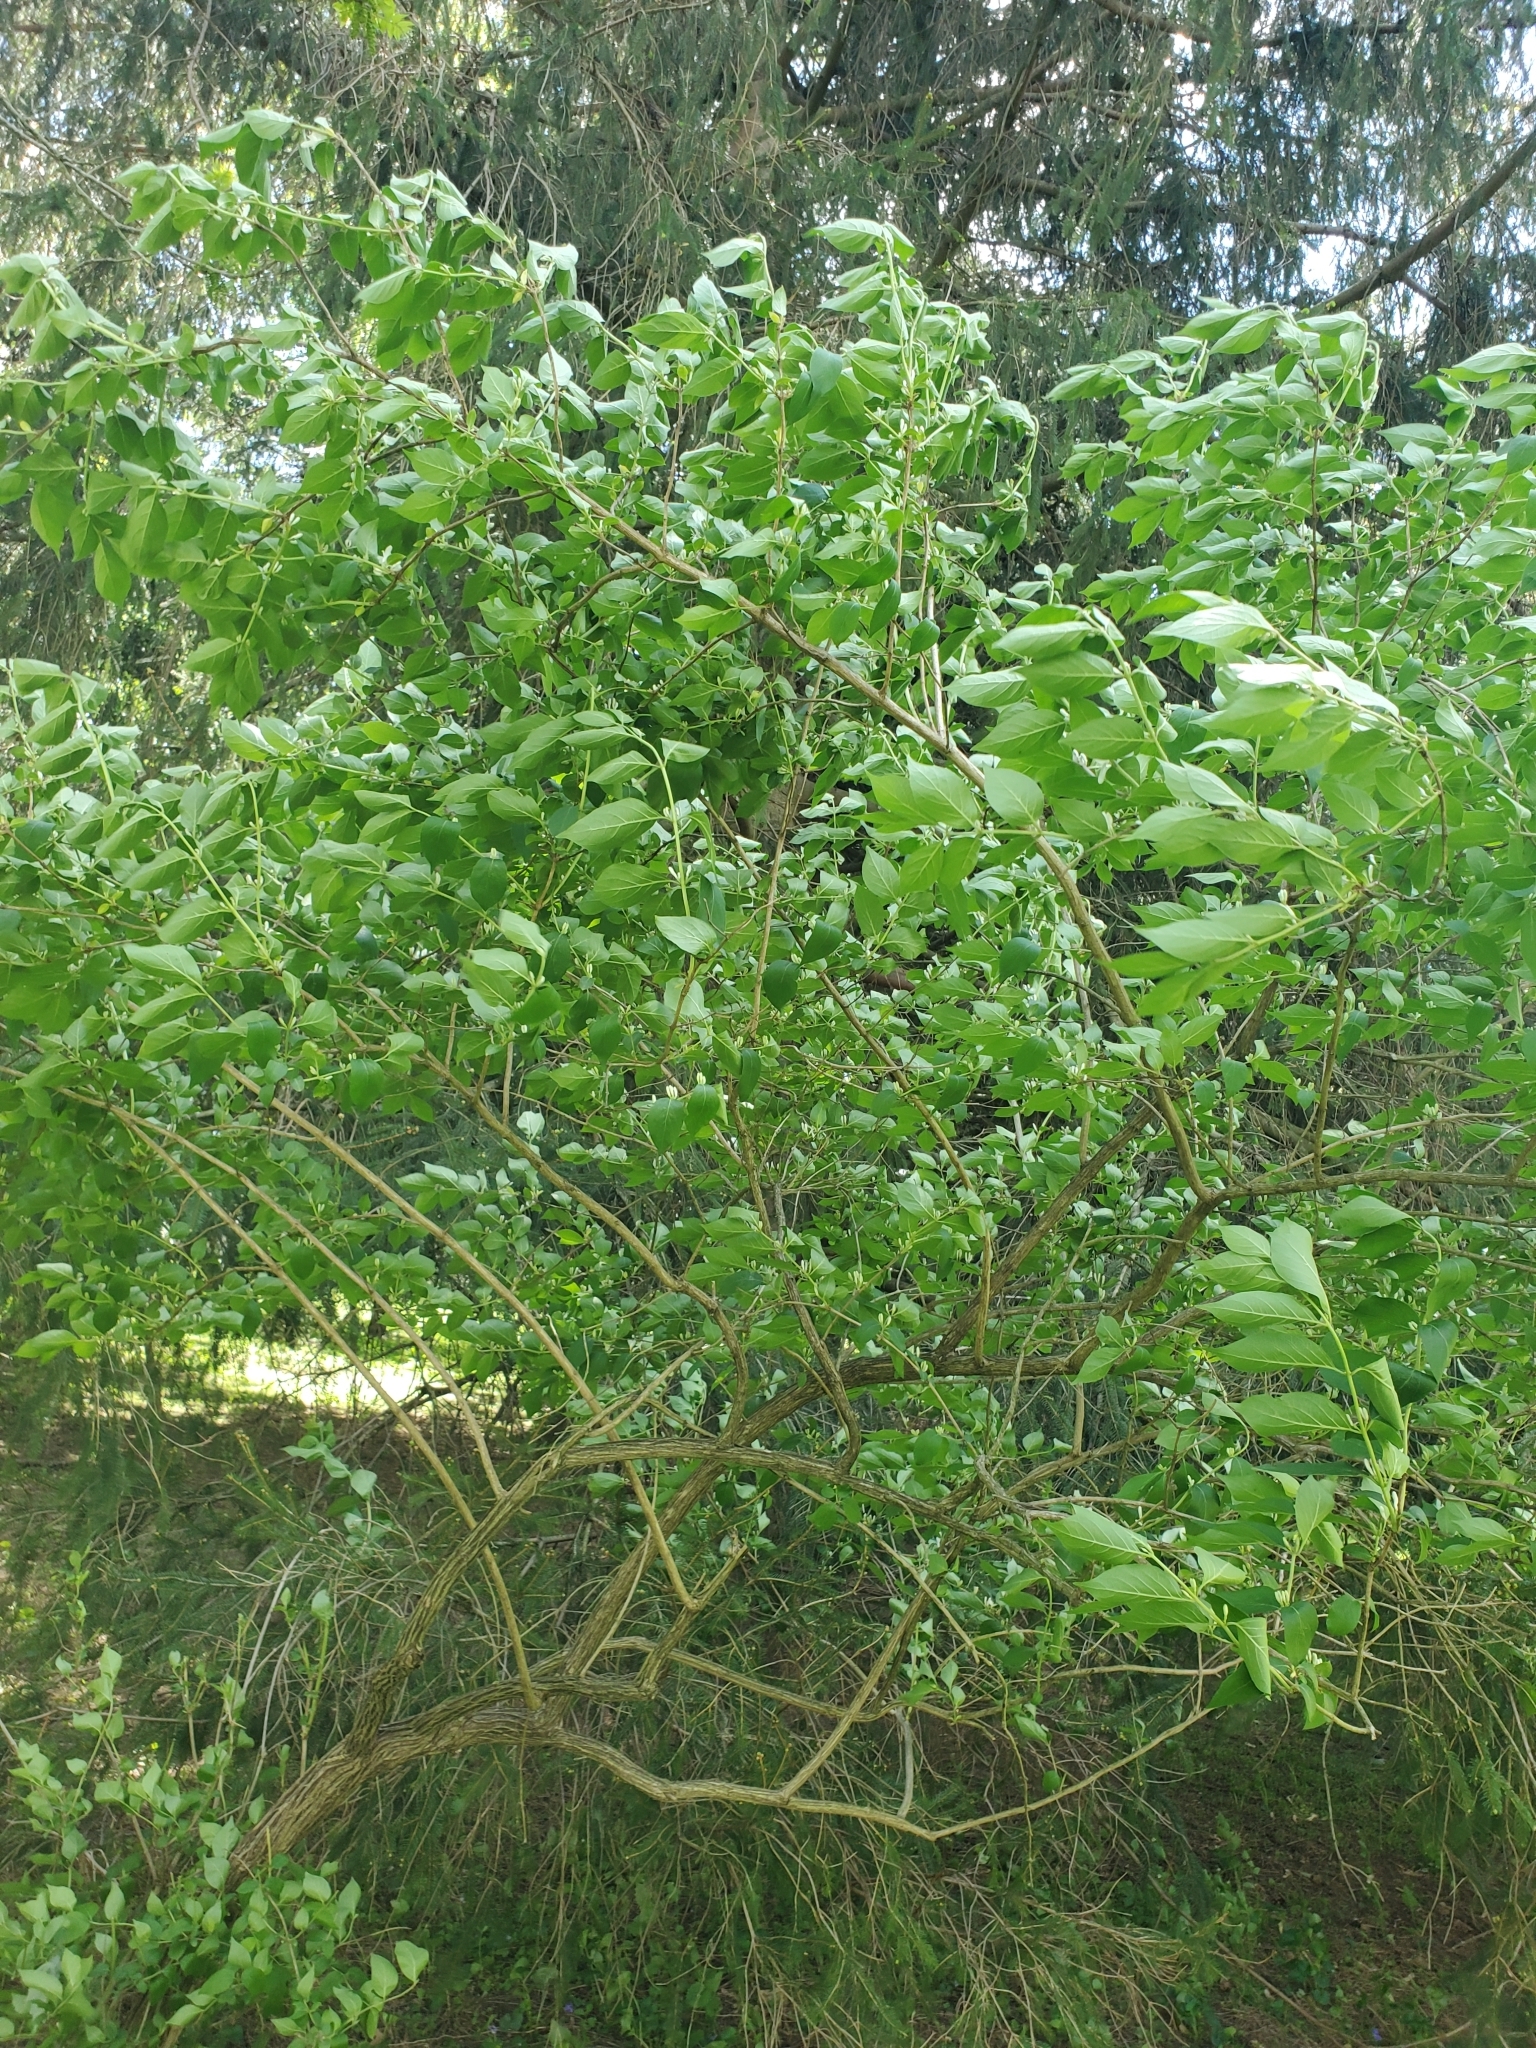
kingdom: Plantae
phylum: Tracheophyta
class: Magnoliopsida
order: Dipsacales
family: Caprifoliaceae
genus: Lonicera
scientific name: Lonicera maackii
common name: Amur honeysuckle
